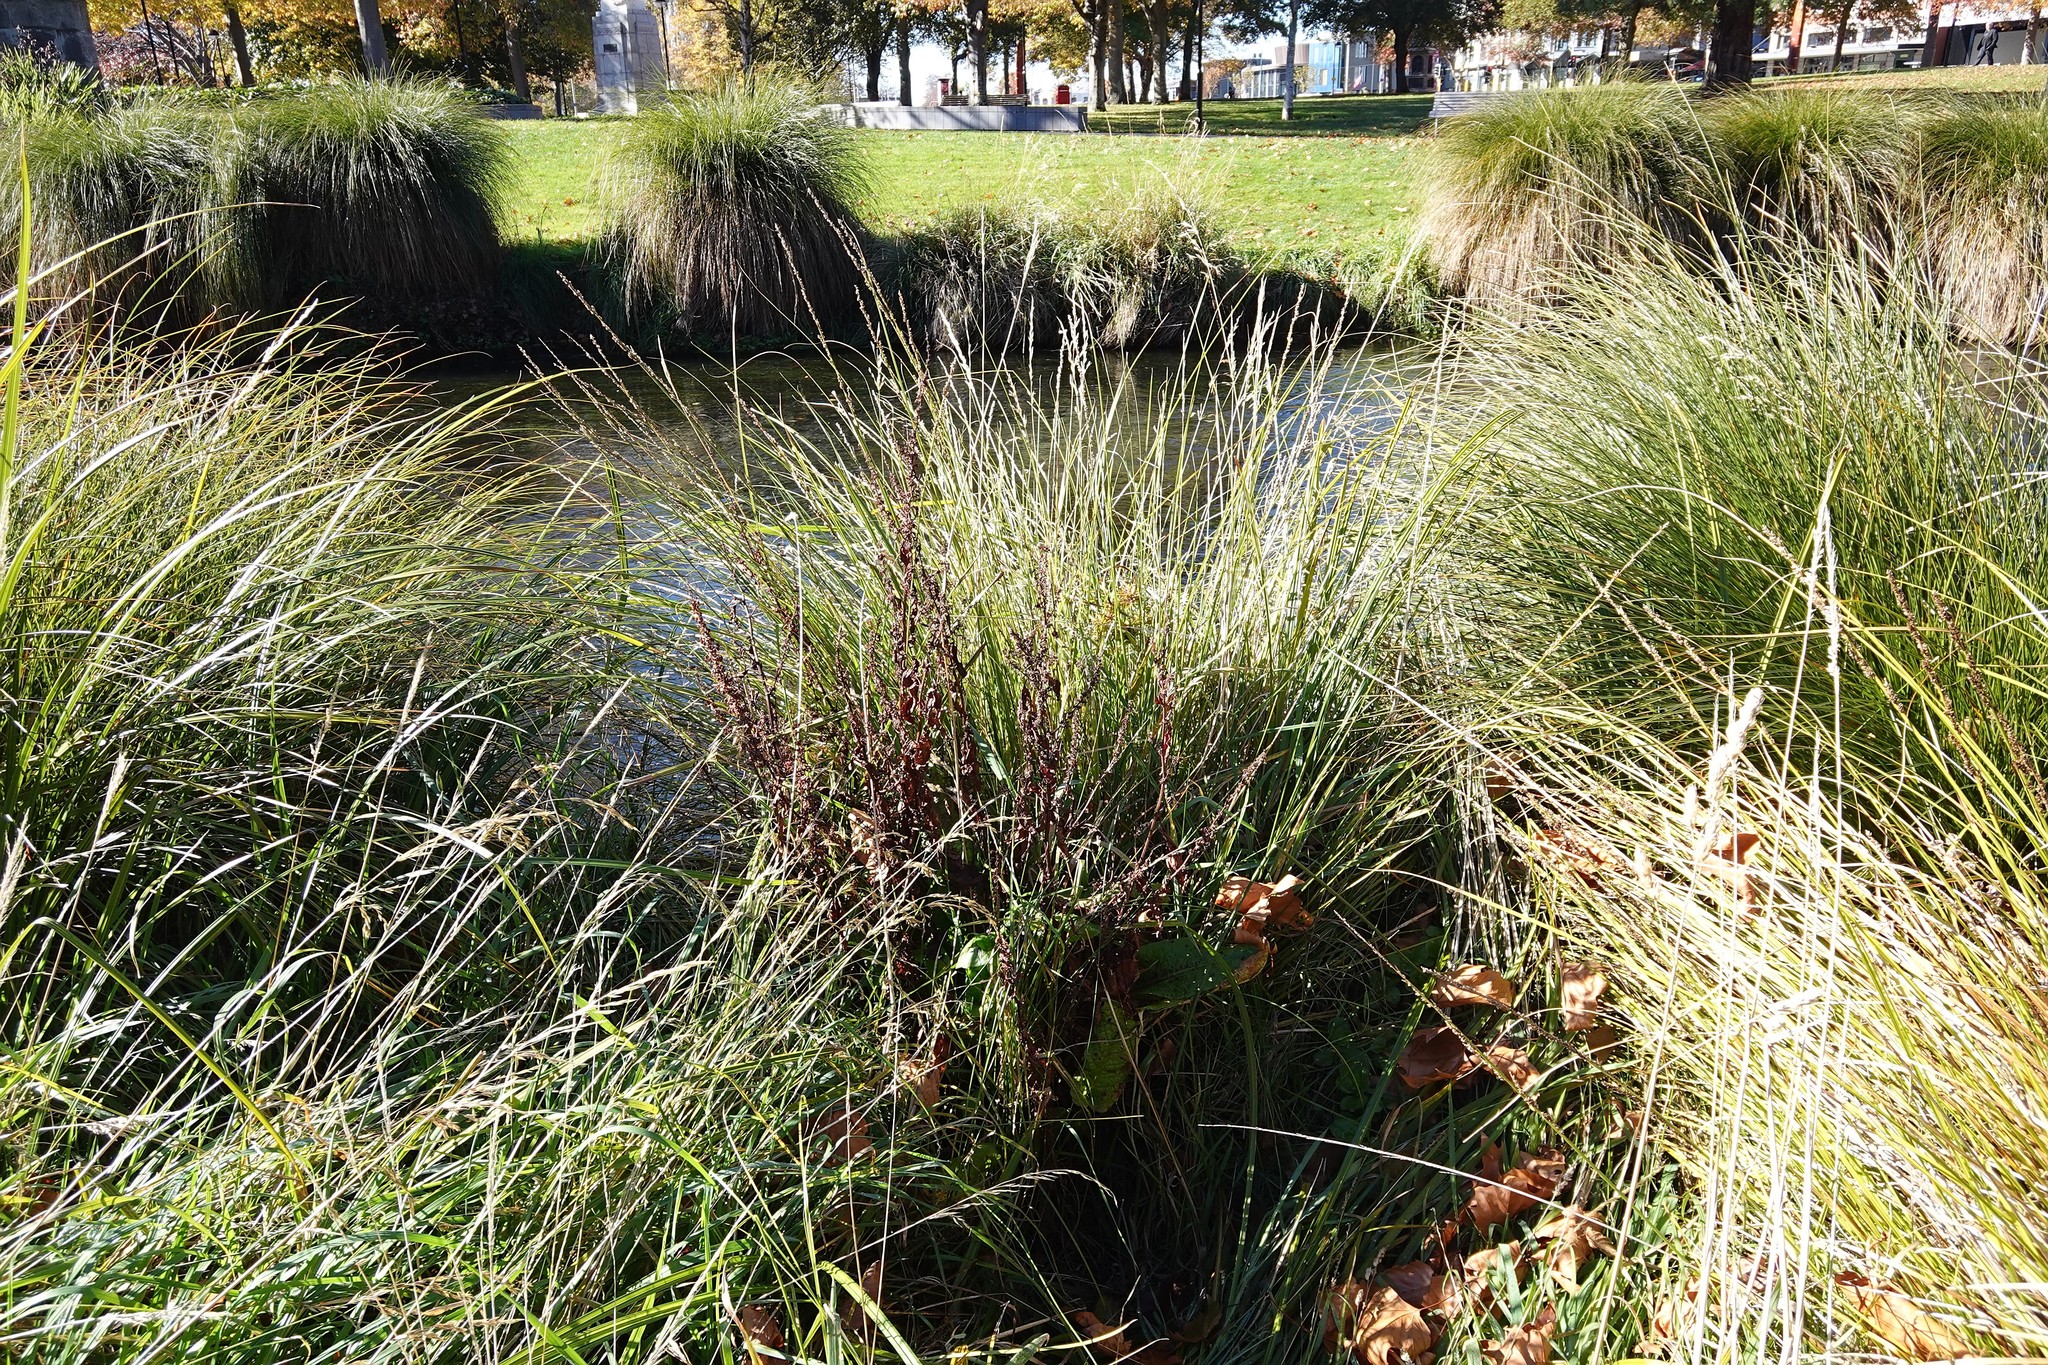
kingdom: Plantae
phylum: Tracheophyta
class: Magnoliopsida
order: Caryophyllales
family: Polygonaceae
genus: Rumex
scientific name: Rumex obtusifolius
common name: Bitter dock
